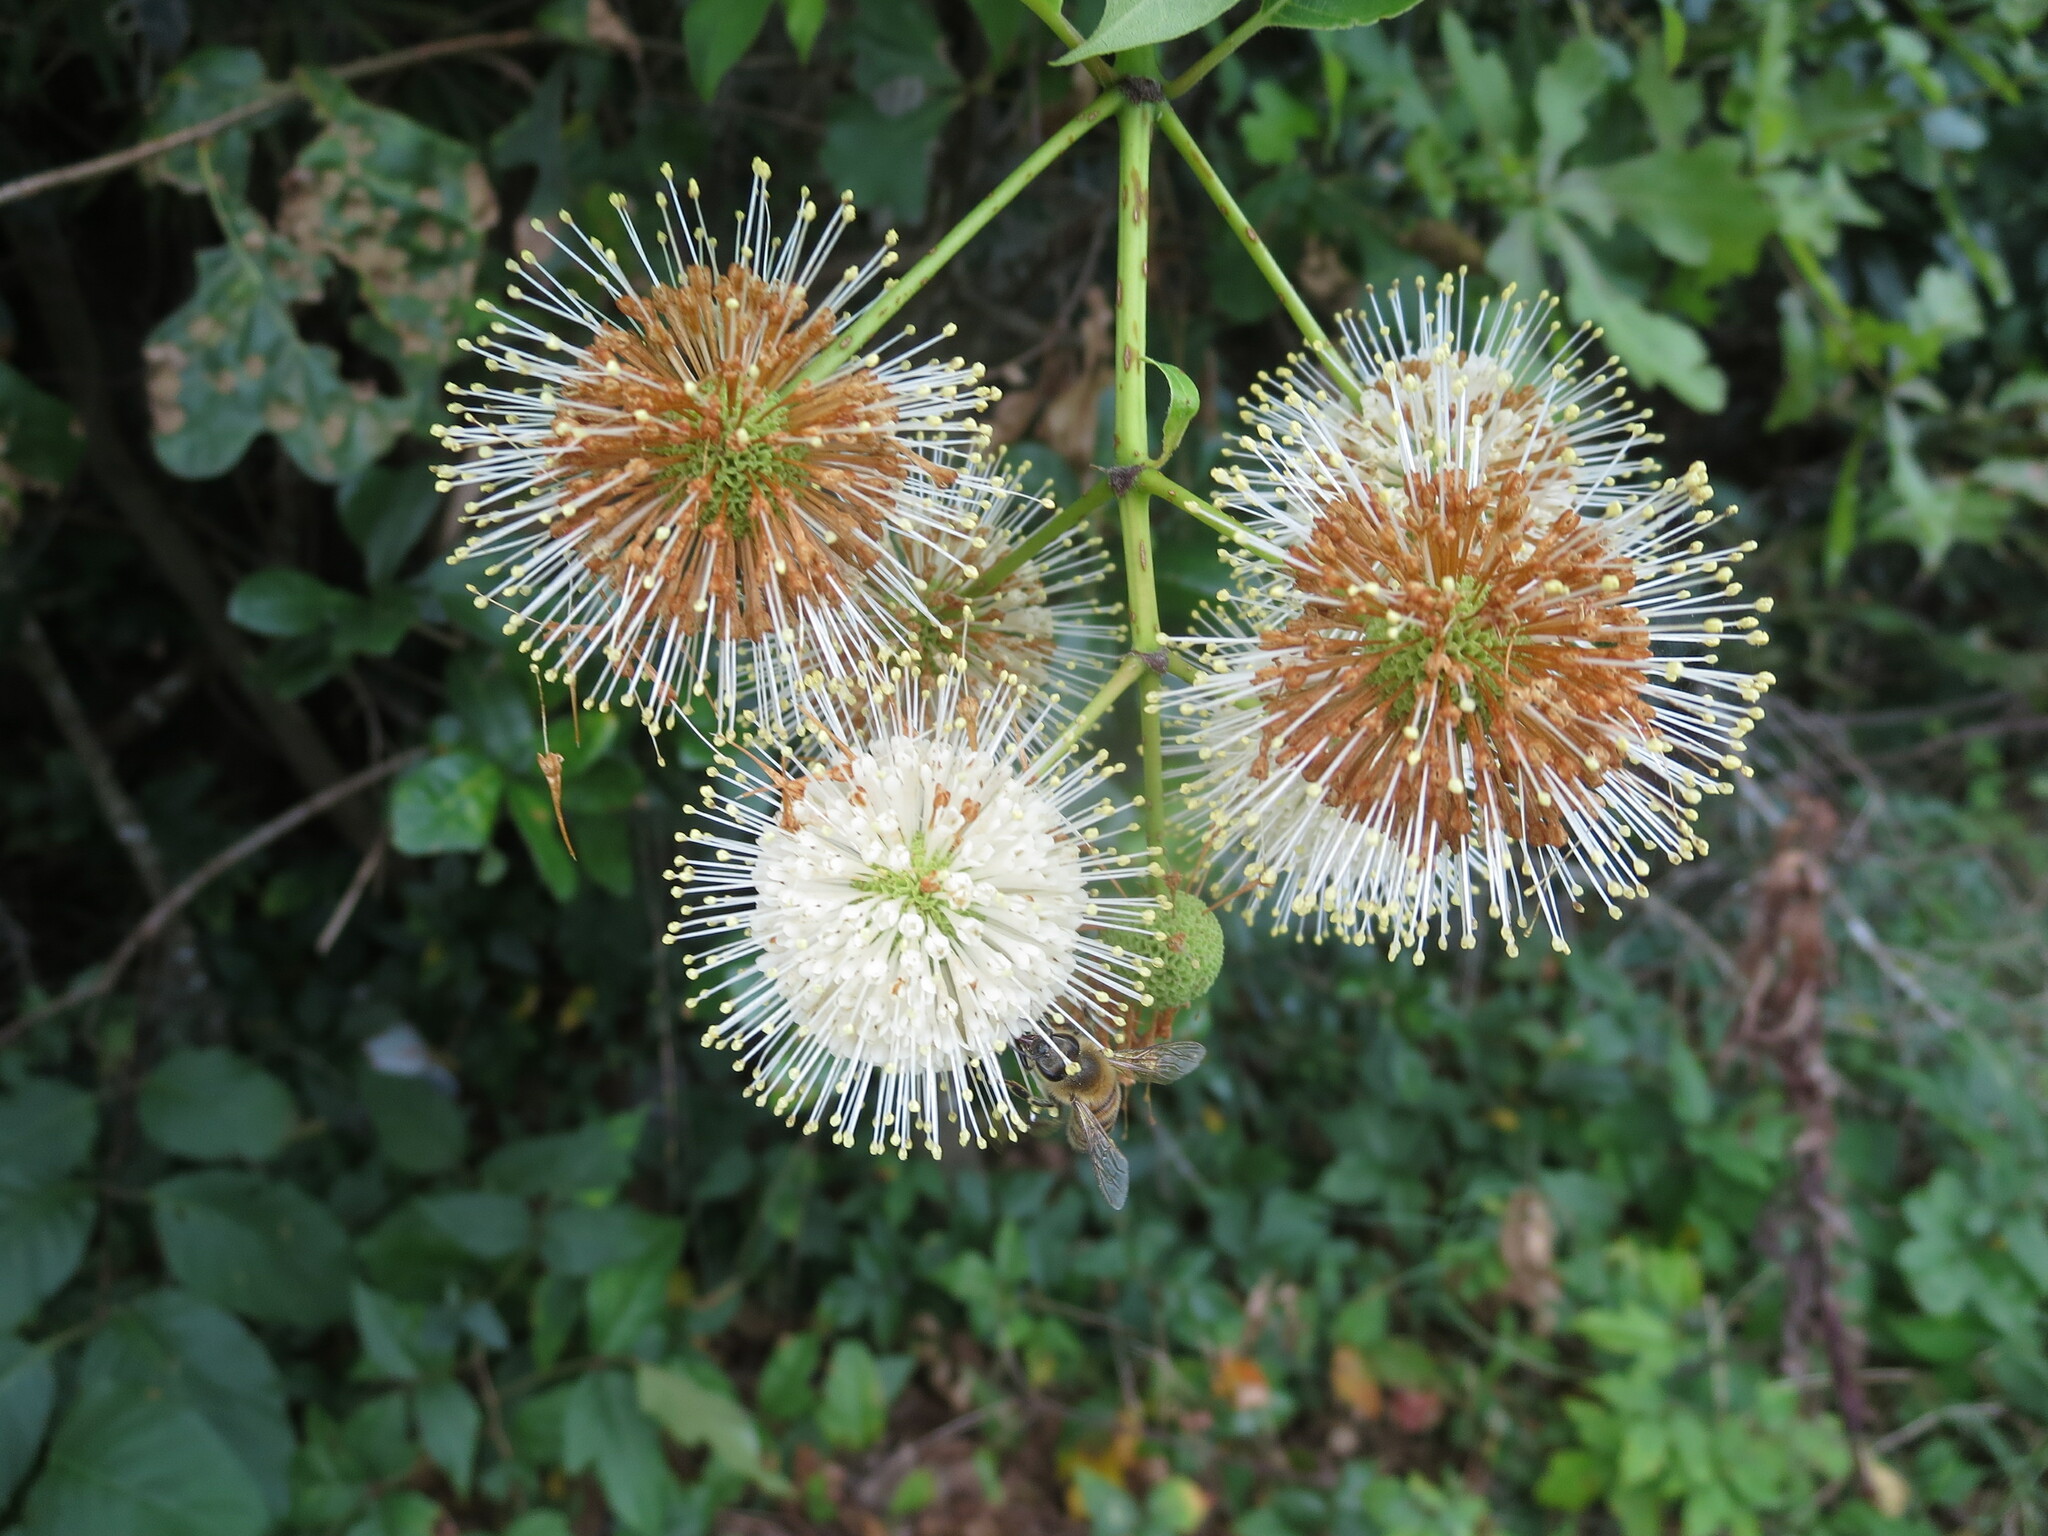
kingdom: Plantae
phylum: Tracheophyta
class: Magnoliopsida
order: Gentianales
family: Rubiaceae
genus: Cephalanthus
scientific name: Cephalanthus occidentalis
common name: Button-willow
